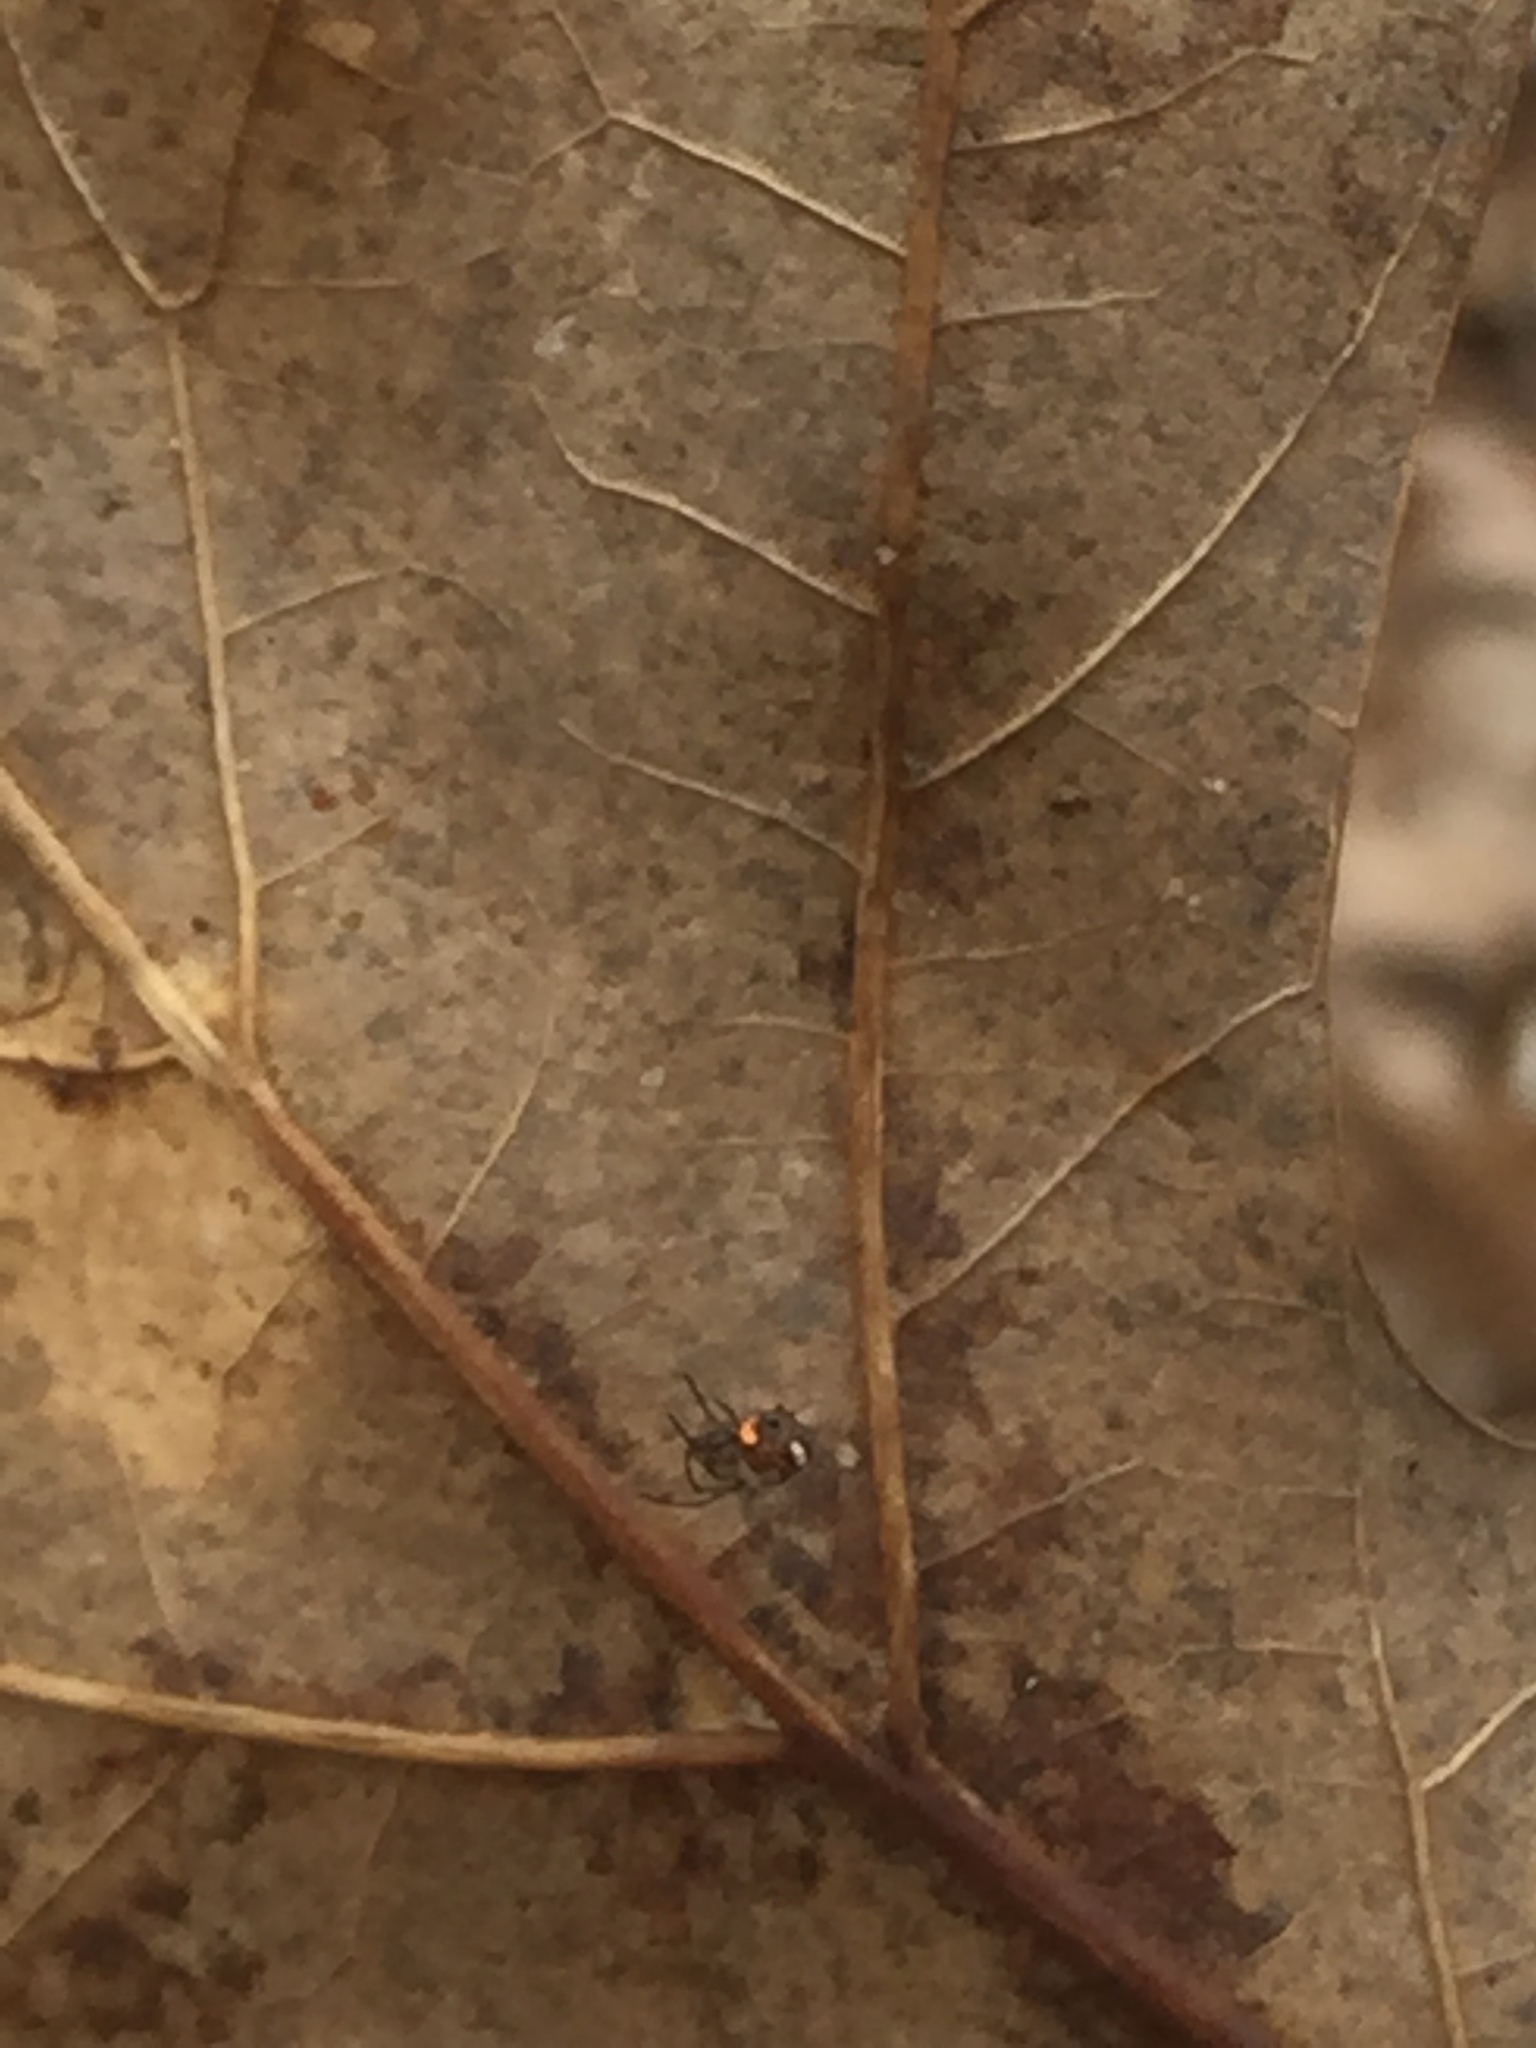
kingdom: Animalia
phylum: Arthropoda
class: Arachnida
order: Araneae
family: Tetragnathidae
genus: Leucauge
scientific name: Leucauge venusta
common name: Longjawed orb weavers
